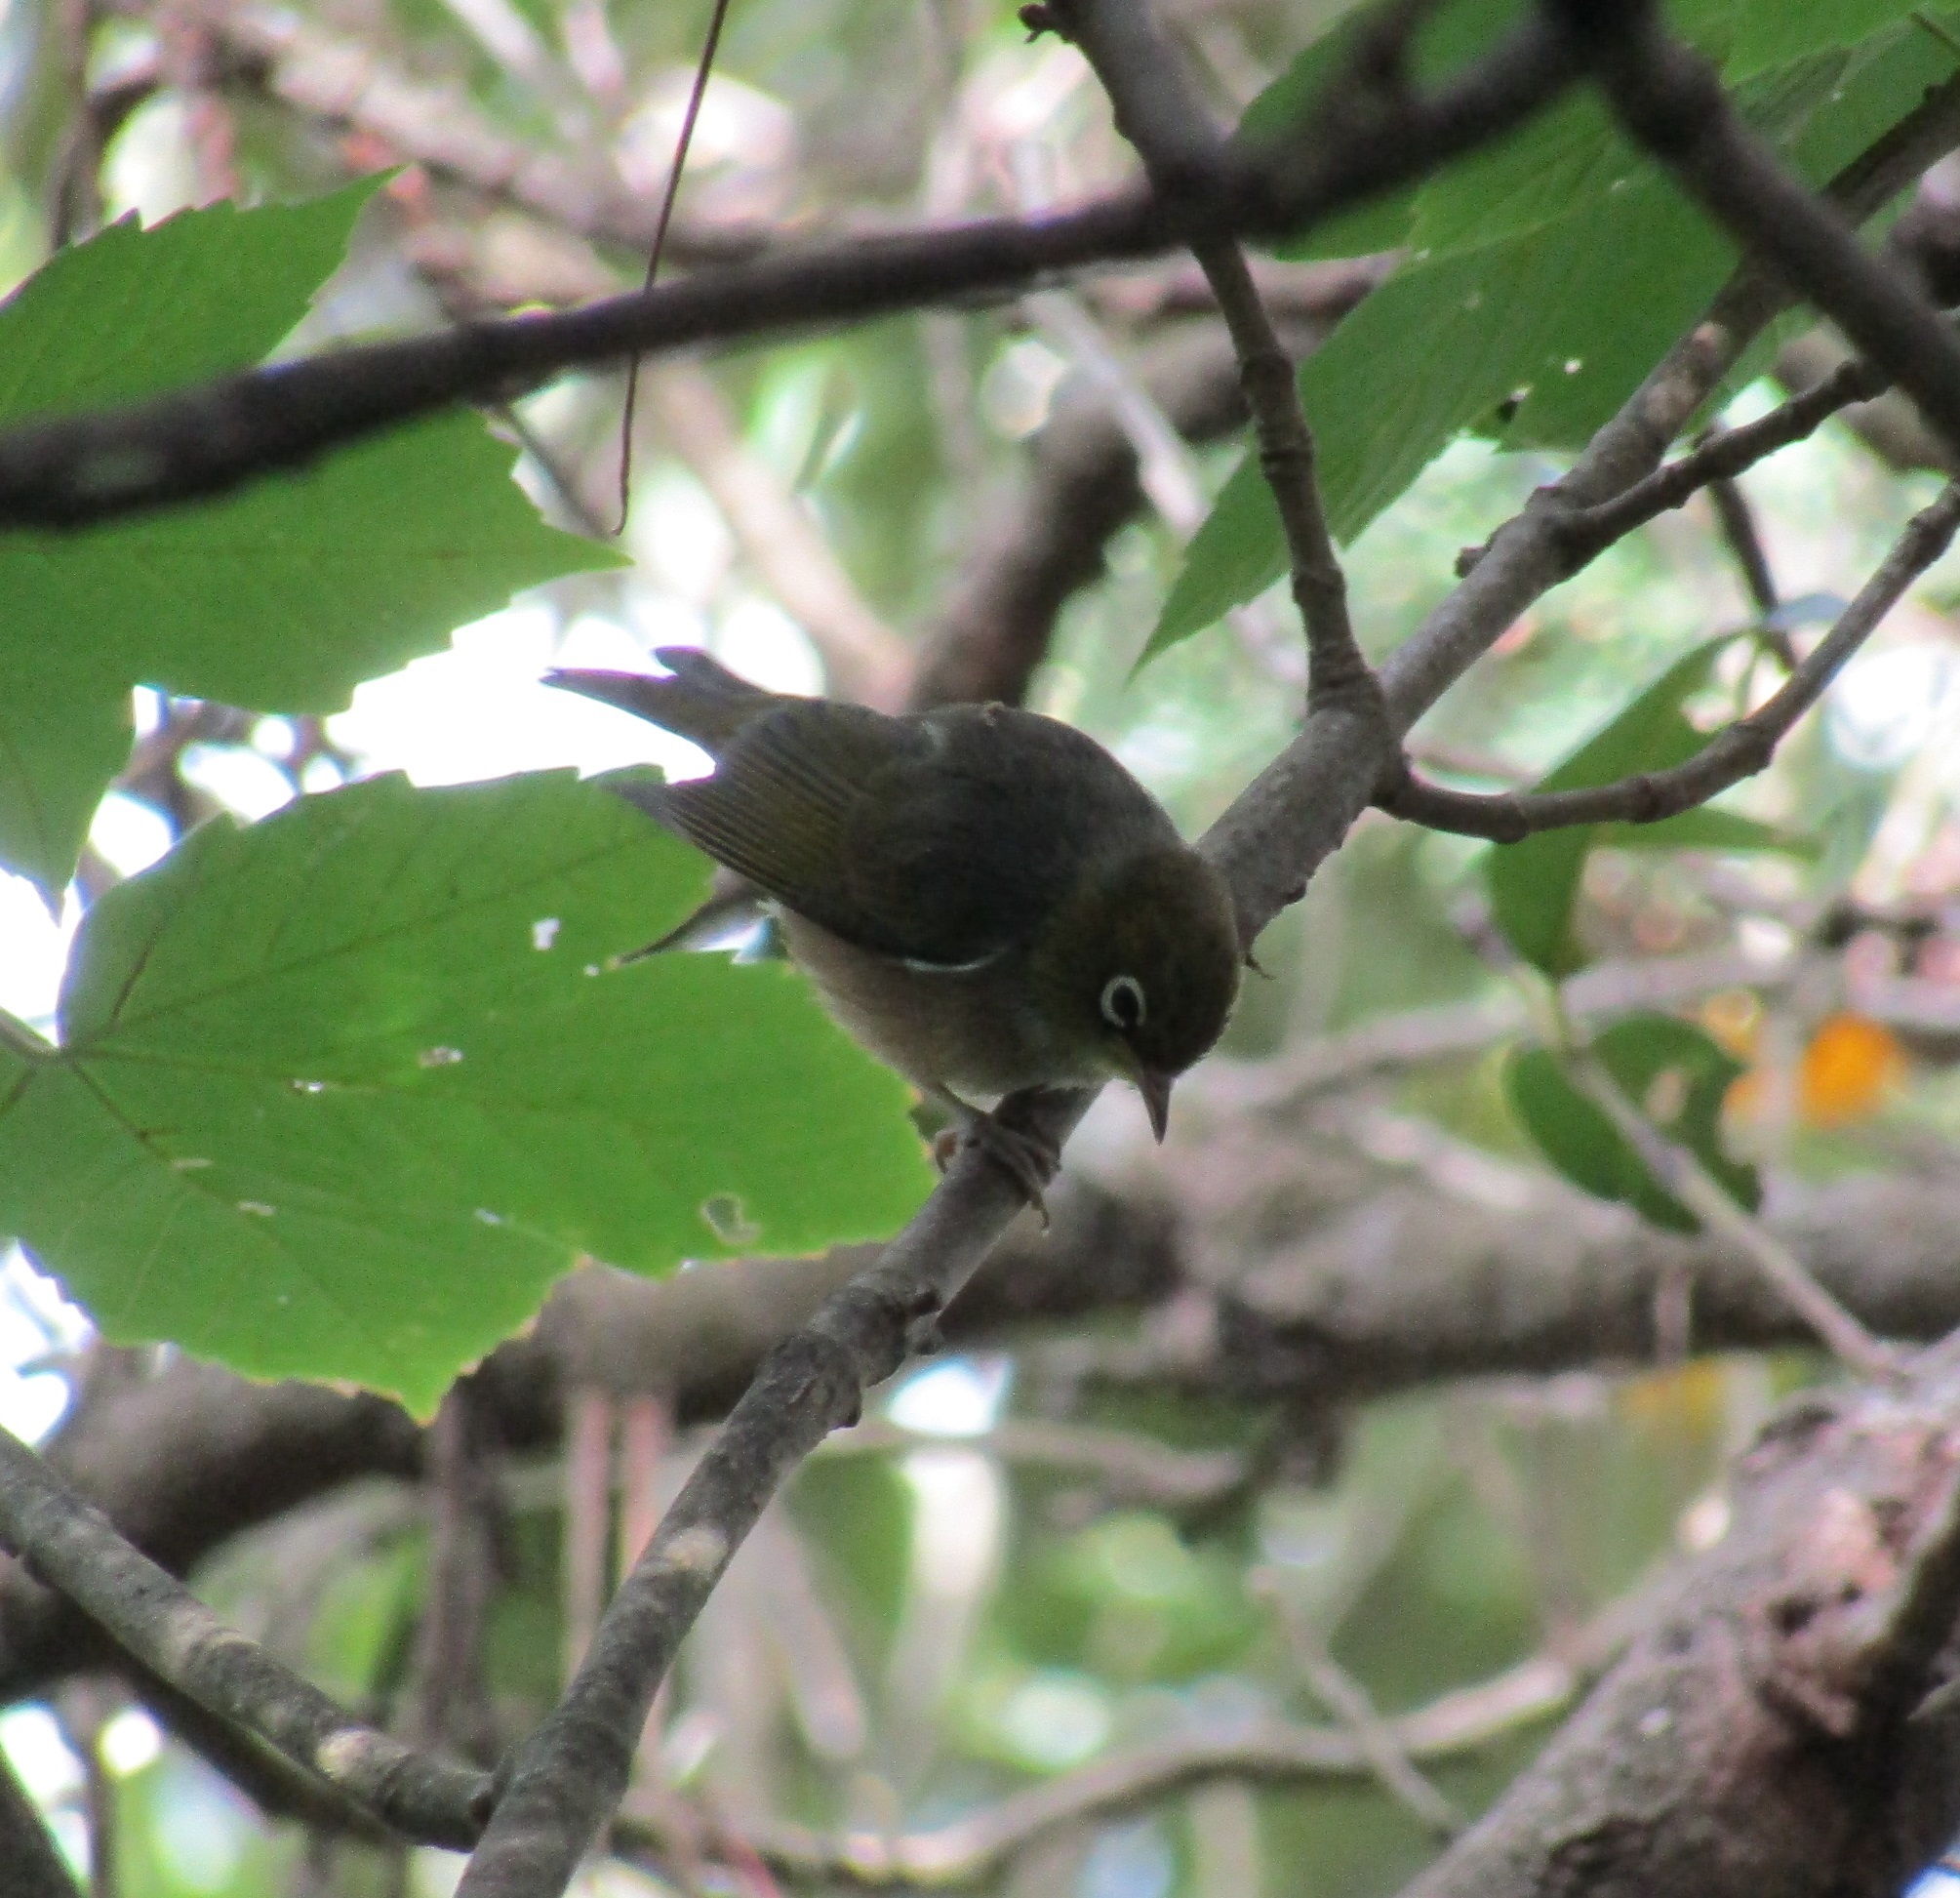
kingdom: Animalia
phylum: Chordata
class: Aves
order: Passeriformes
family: Zosteropidae
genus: Zosterops
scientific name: Zosterops lateralis
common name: Silvereye
